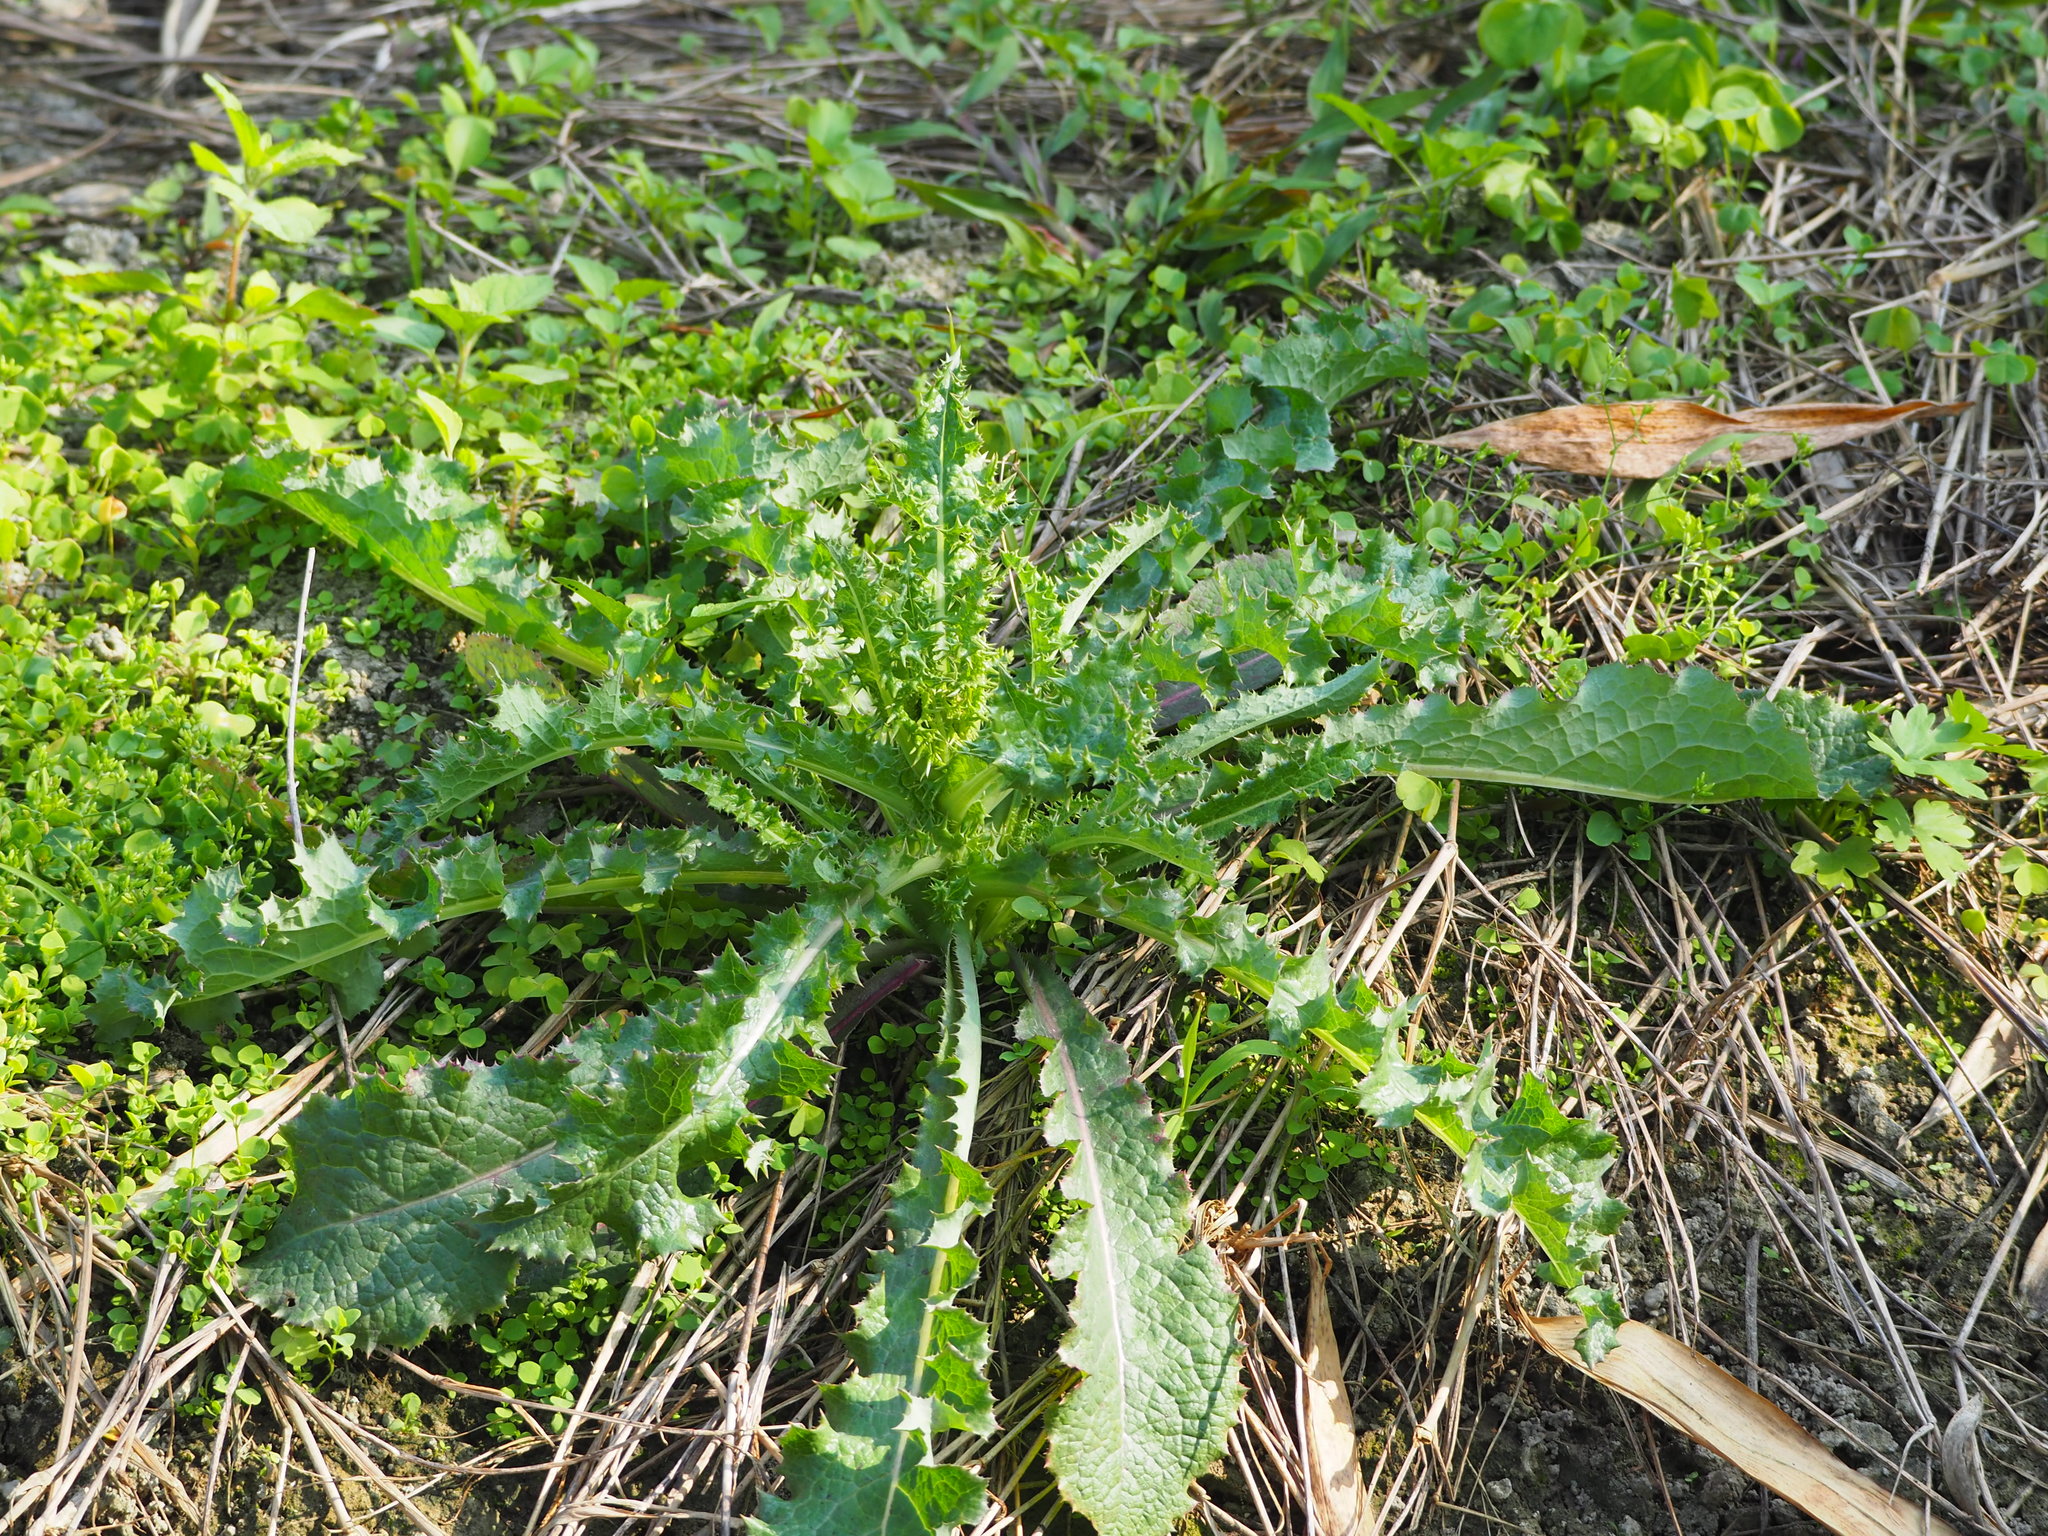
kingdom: Plantae
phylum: Tracheophyta
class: Magnoliopsida
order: Asterales
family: Asteraceae
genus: Sonchus
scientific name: Sonchus asper
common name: Prickly sow-thistle
